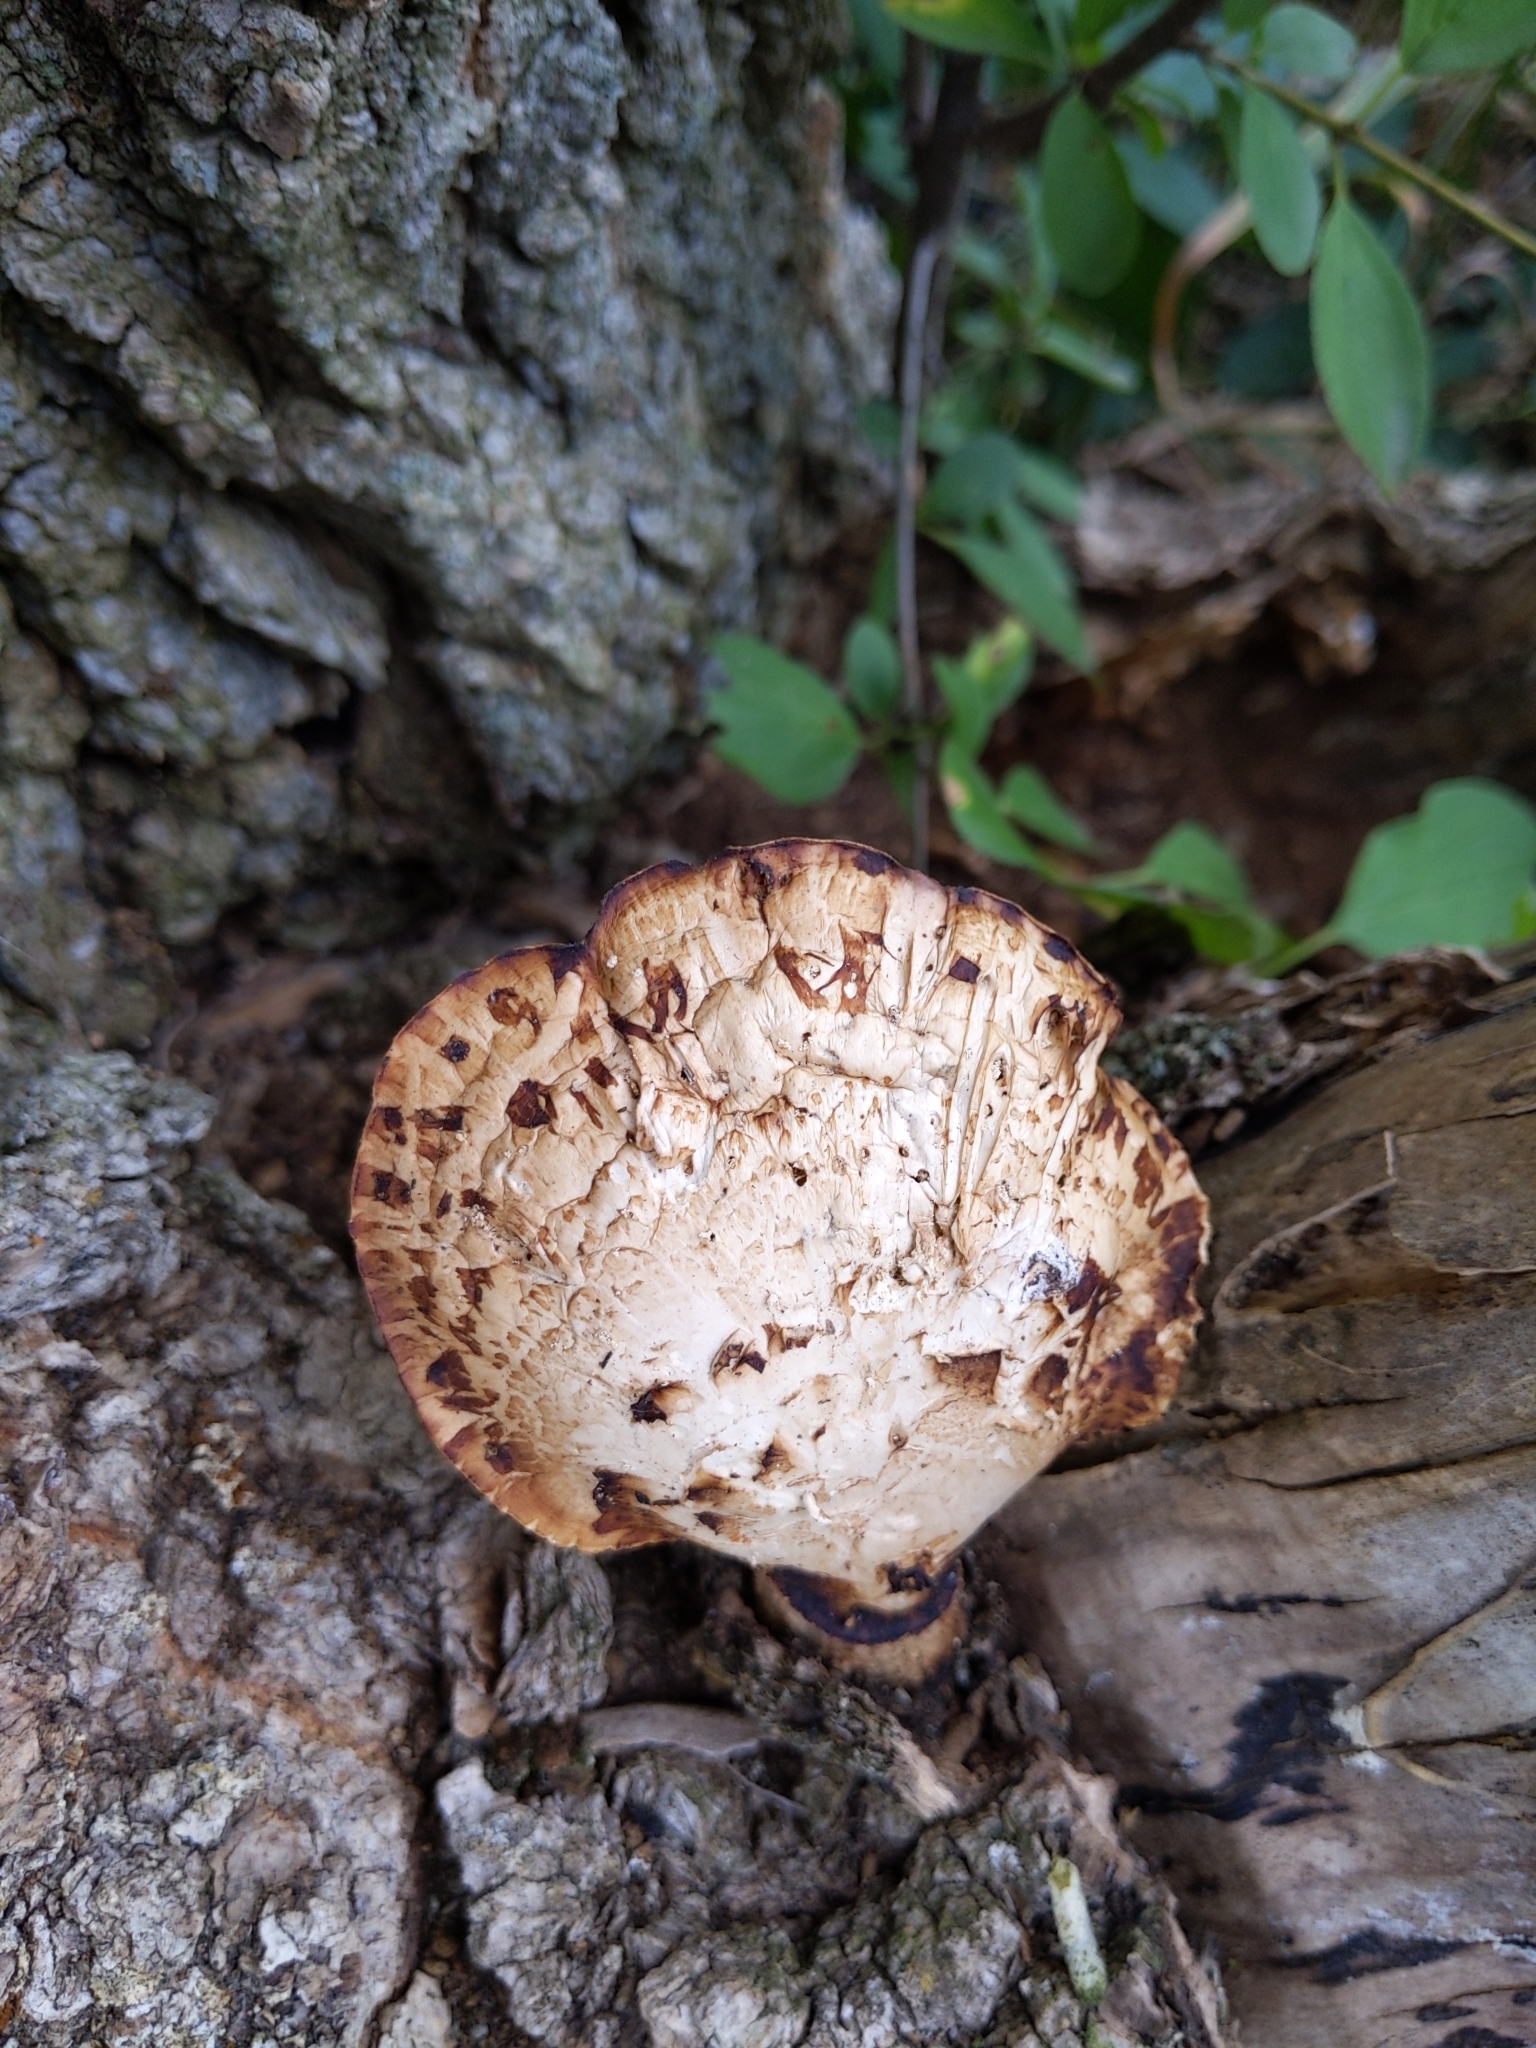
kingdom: Fungi
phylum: Basidiomycota
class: Agaricomycetes
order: Polyporales
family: Polyporaceae
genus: Cerioporus
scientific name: Cerioporus squamosus
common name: Dryad's saddle
